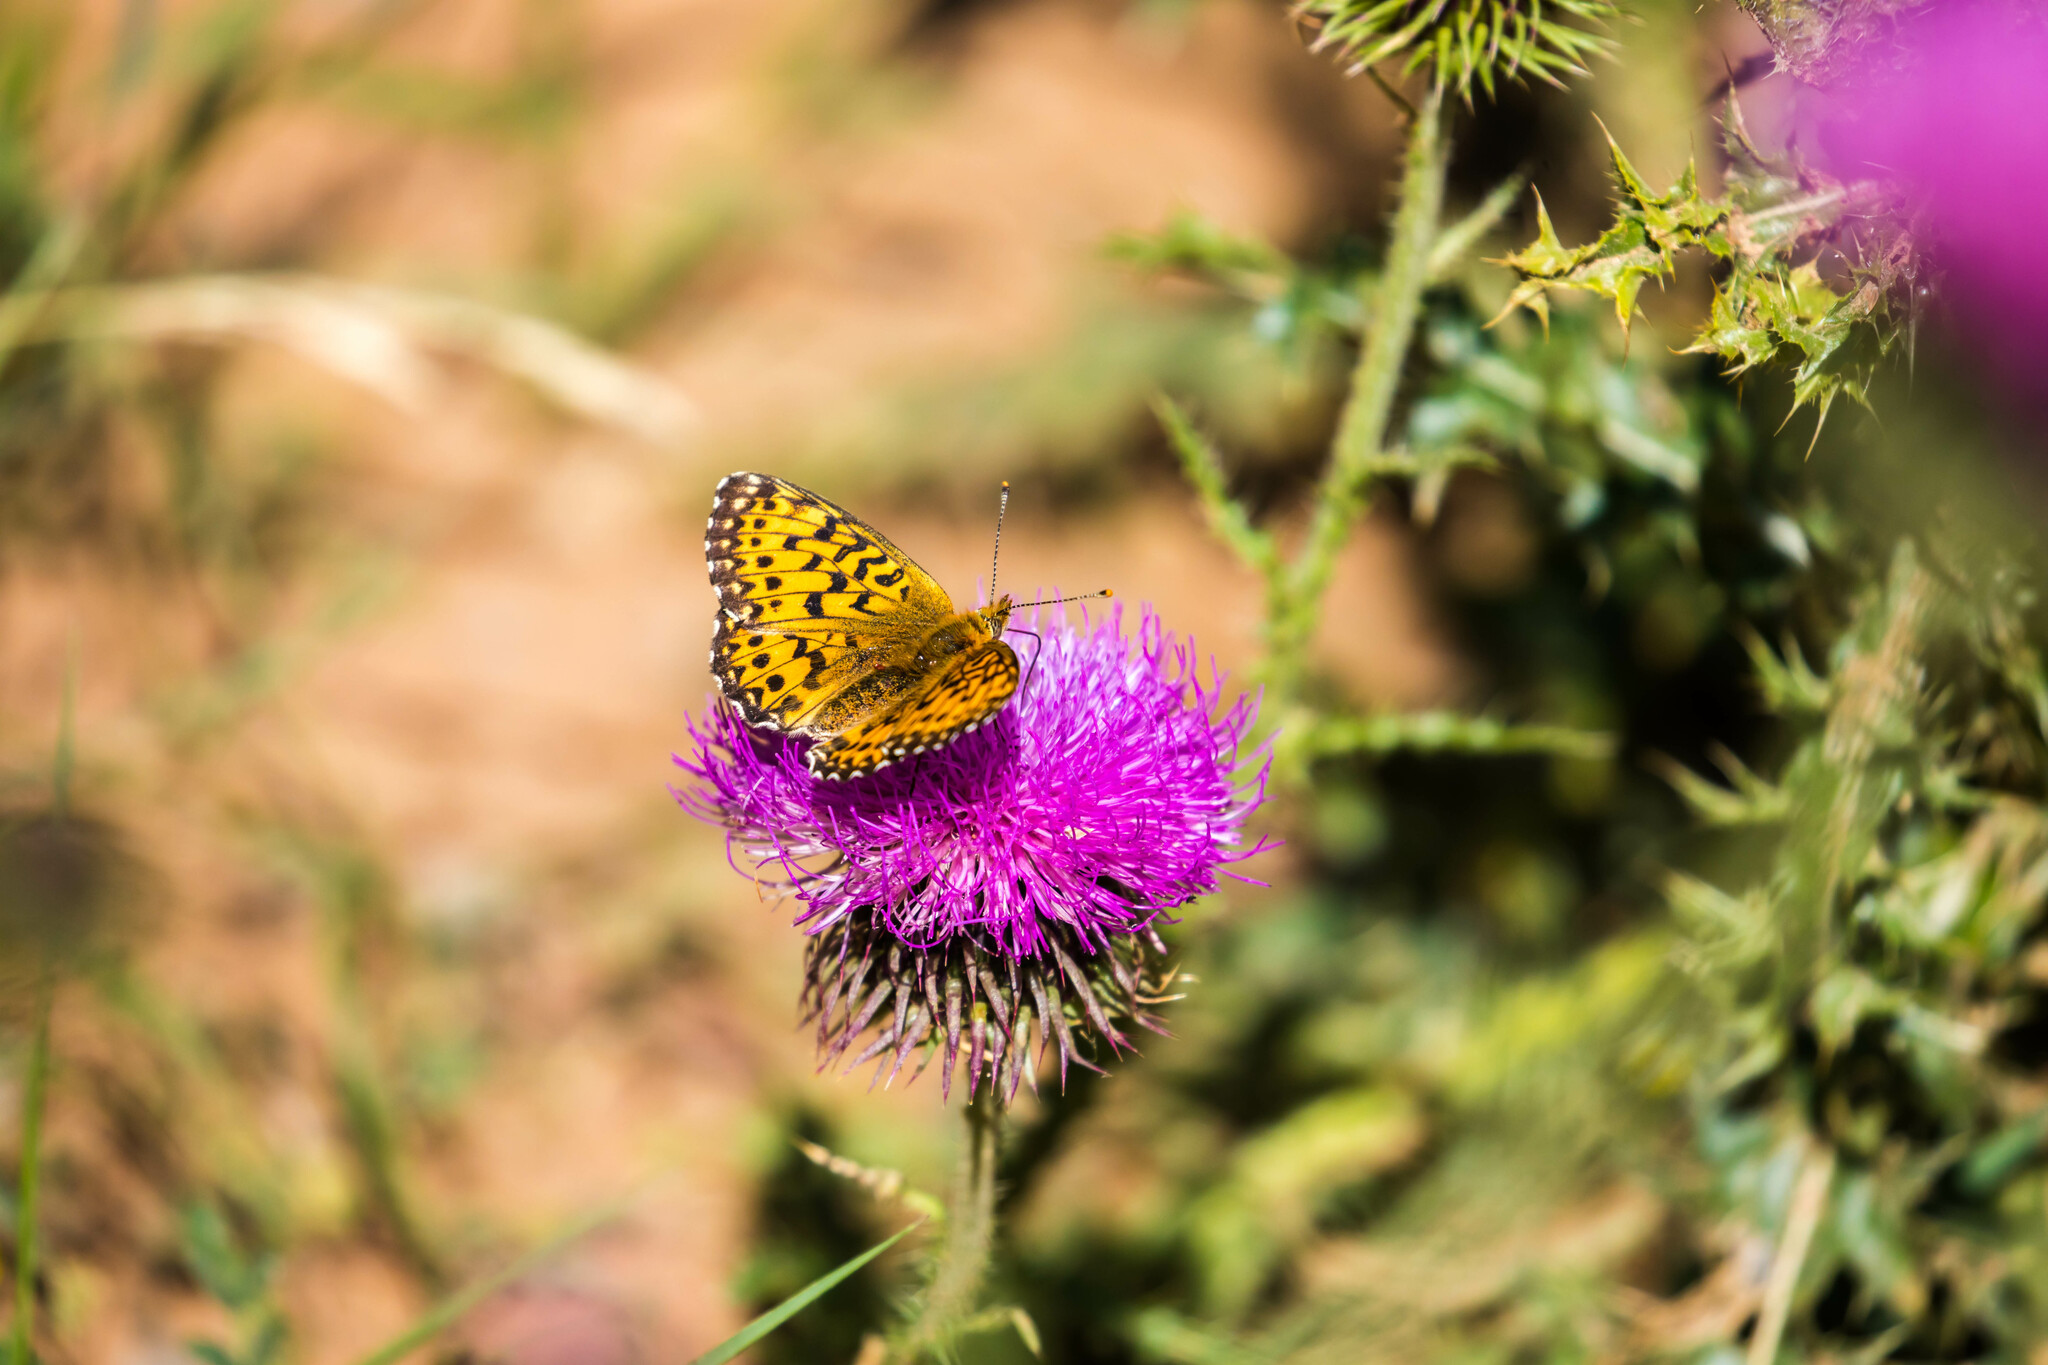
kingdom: Animalia
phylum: Arthropoda
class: Insecta
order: Lepidoptera
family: Nymphalidae
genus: Boloria
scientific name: Boloria titania
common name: Titania's fritillary
